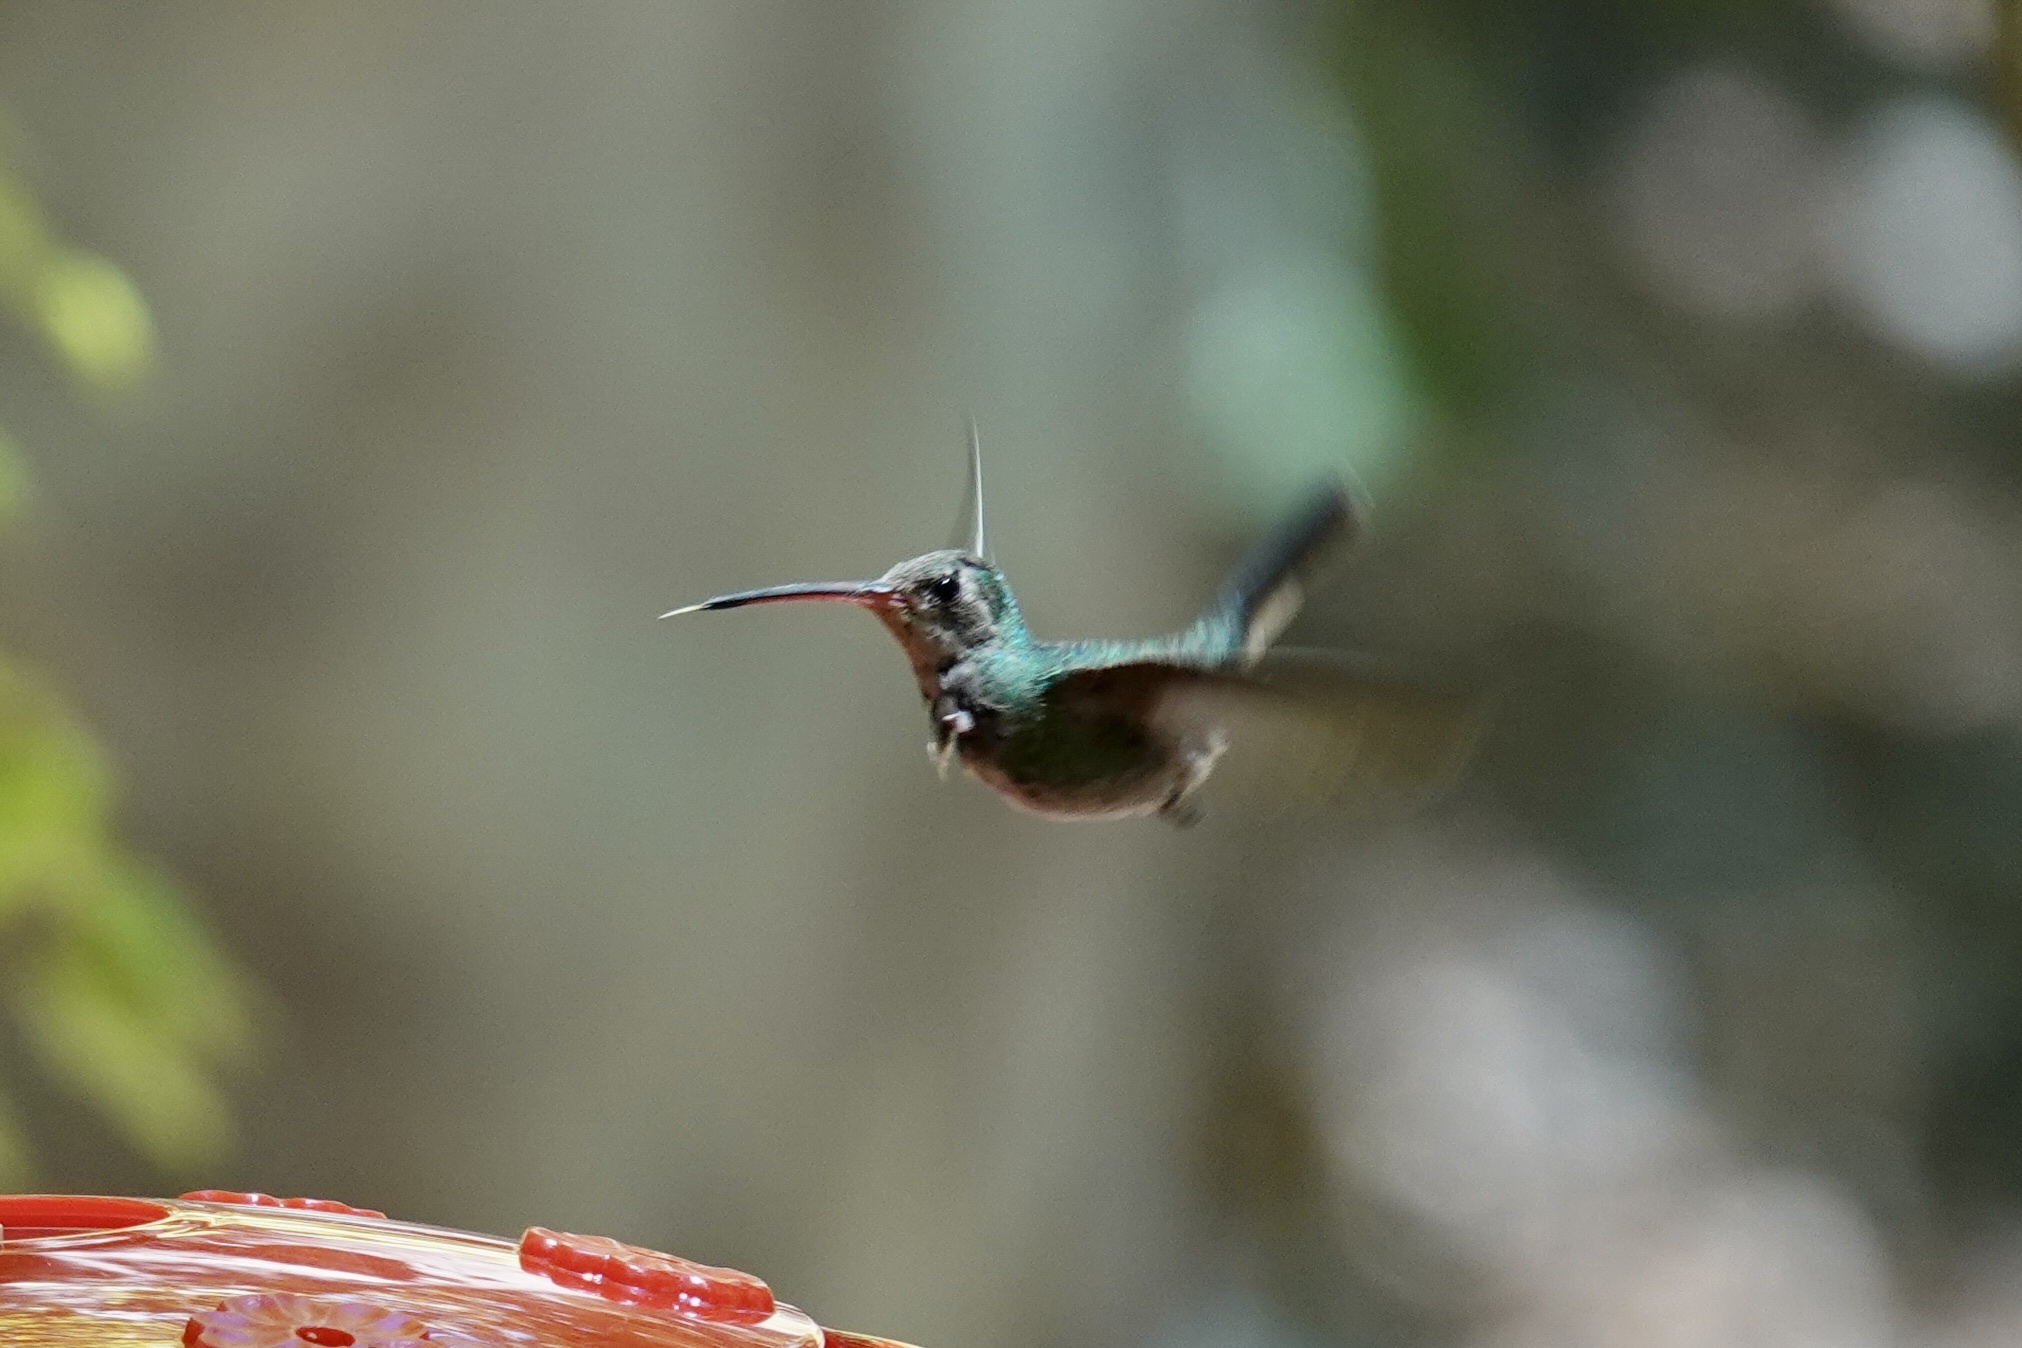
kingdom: Animalia
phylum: Chordata
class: Aves
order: Apodiformes
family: Trochilidae
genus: Cynanthus
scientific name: Cynanthus latirostris
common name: Broad-billed hummingbird
